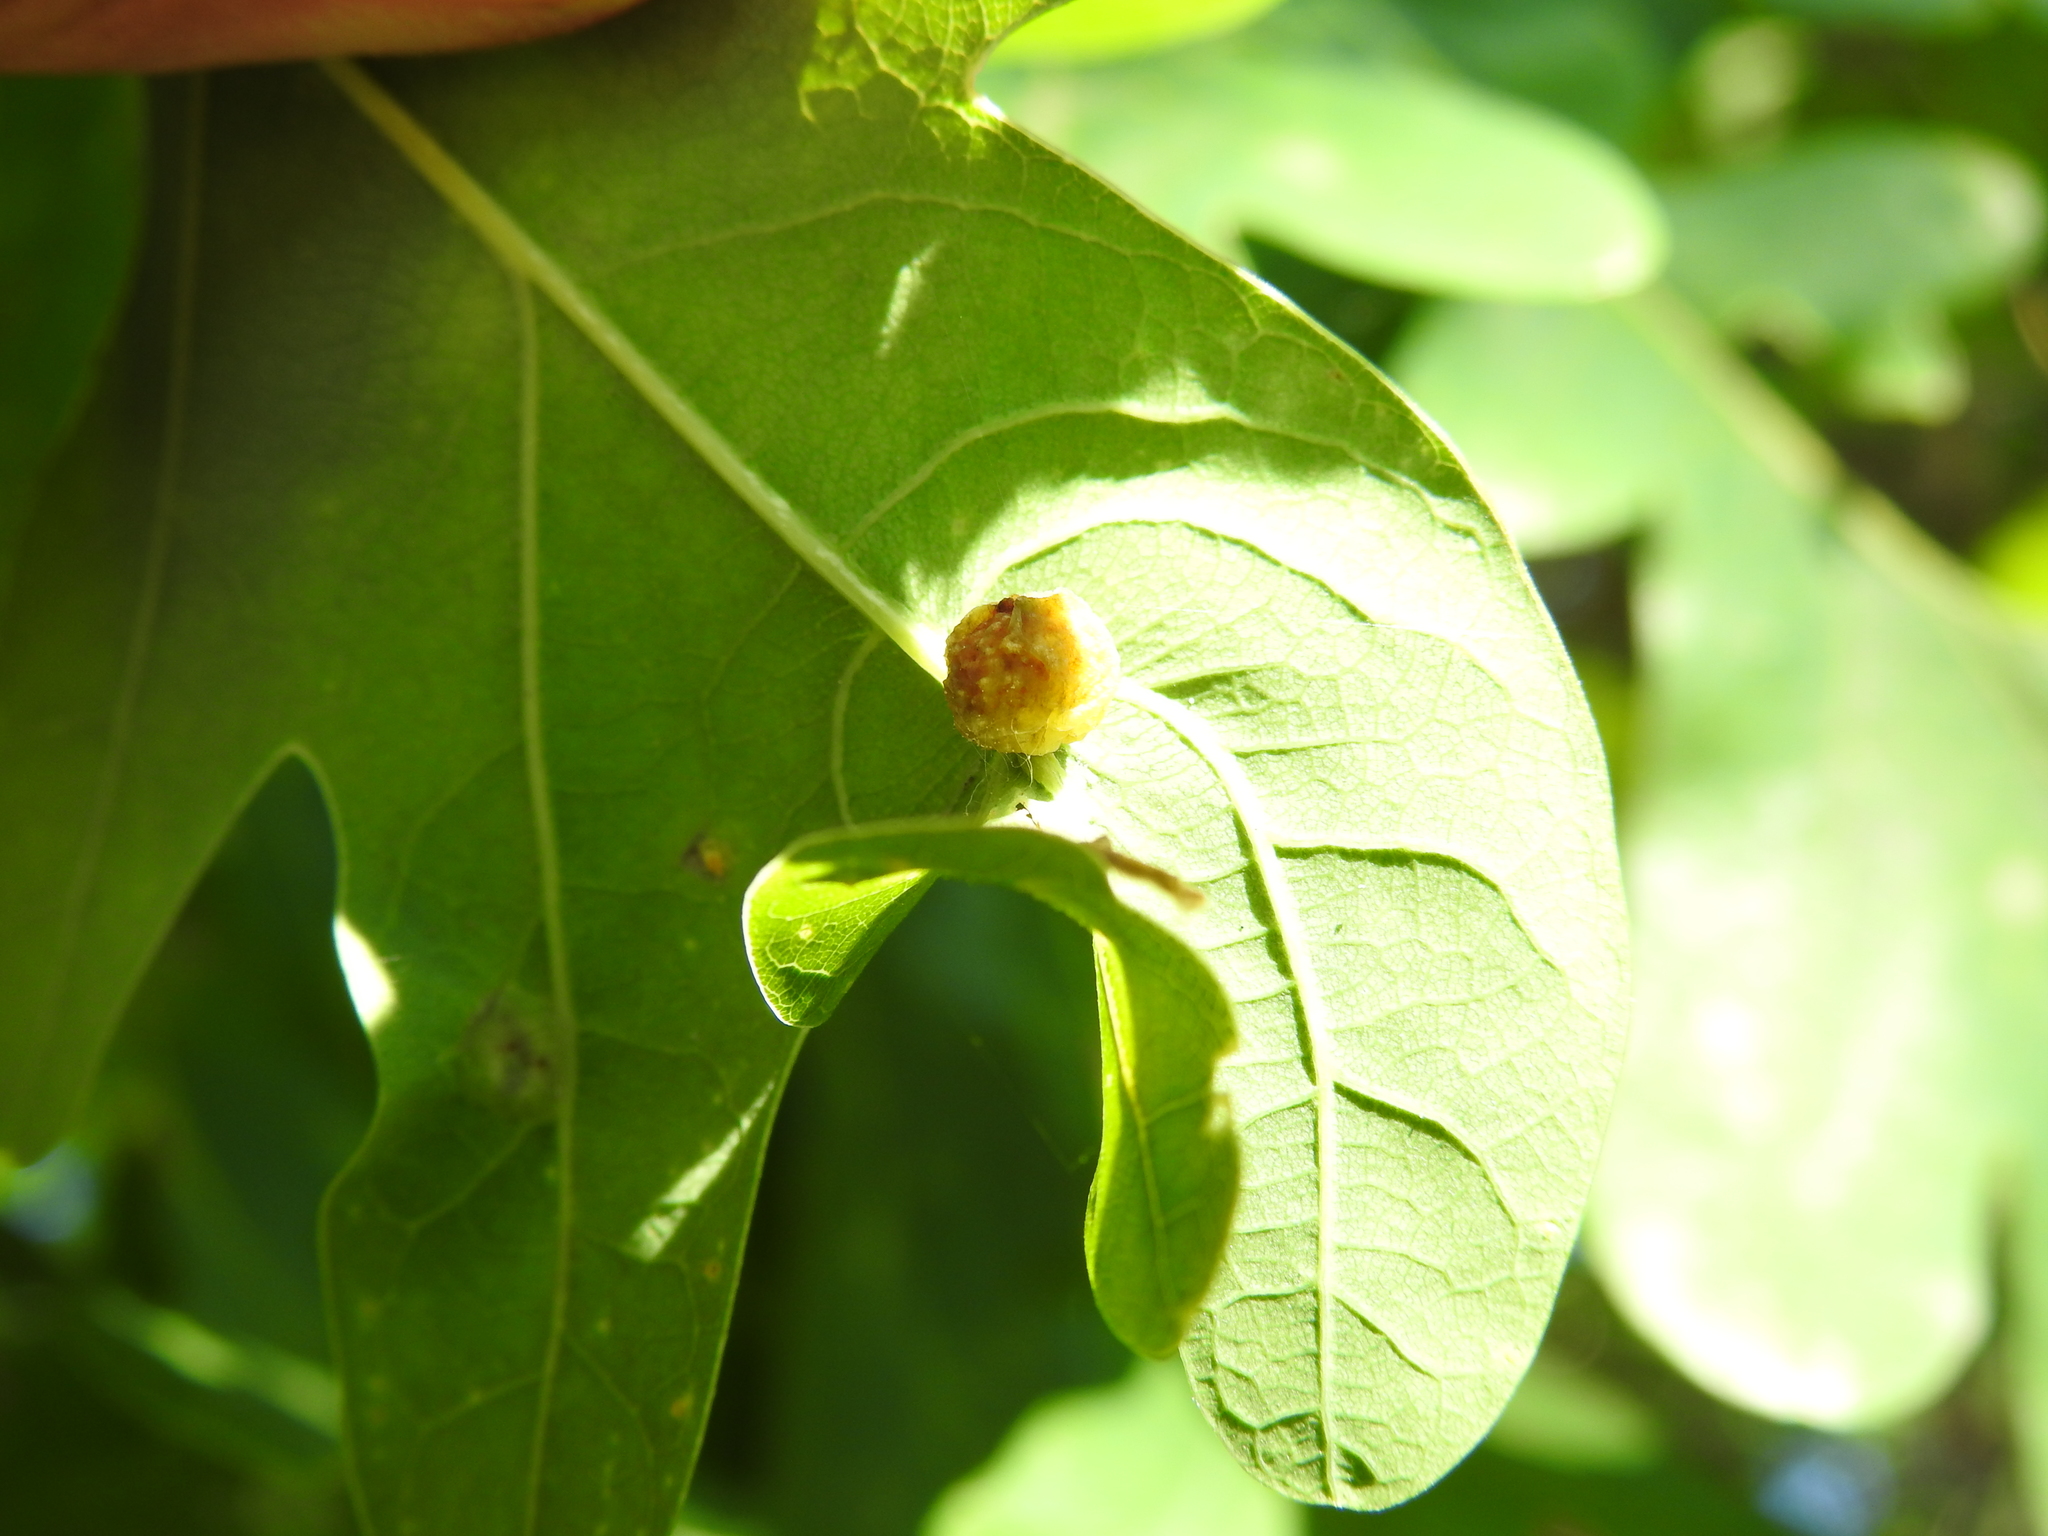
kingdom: Animalia
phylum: Arthropoda
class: Insecta
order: Hymenoptera
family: Cynipidae
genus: Neuroterus
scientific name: Neuroterus quercusbaccarum
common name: Common spangle gall
